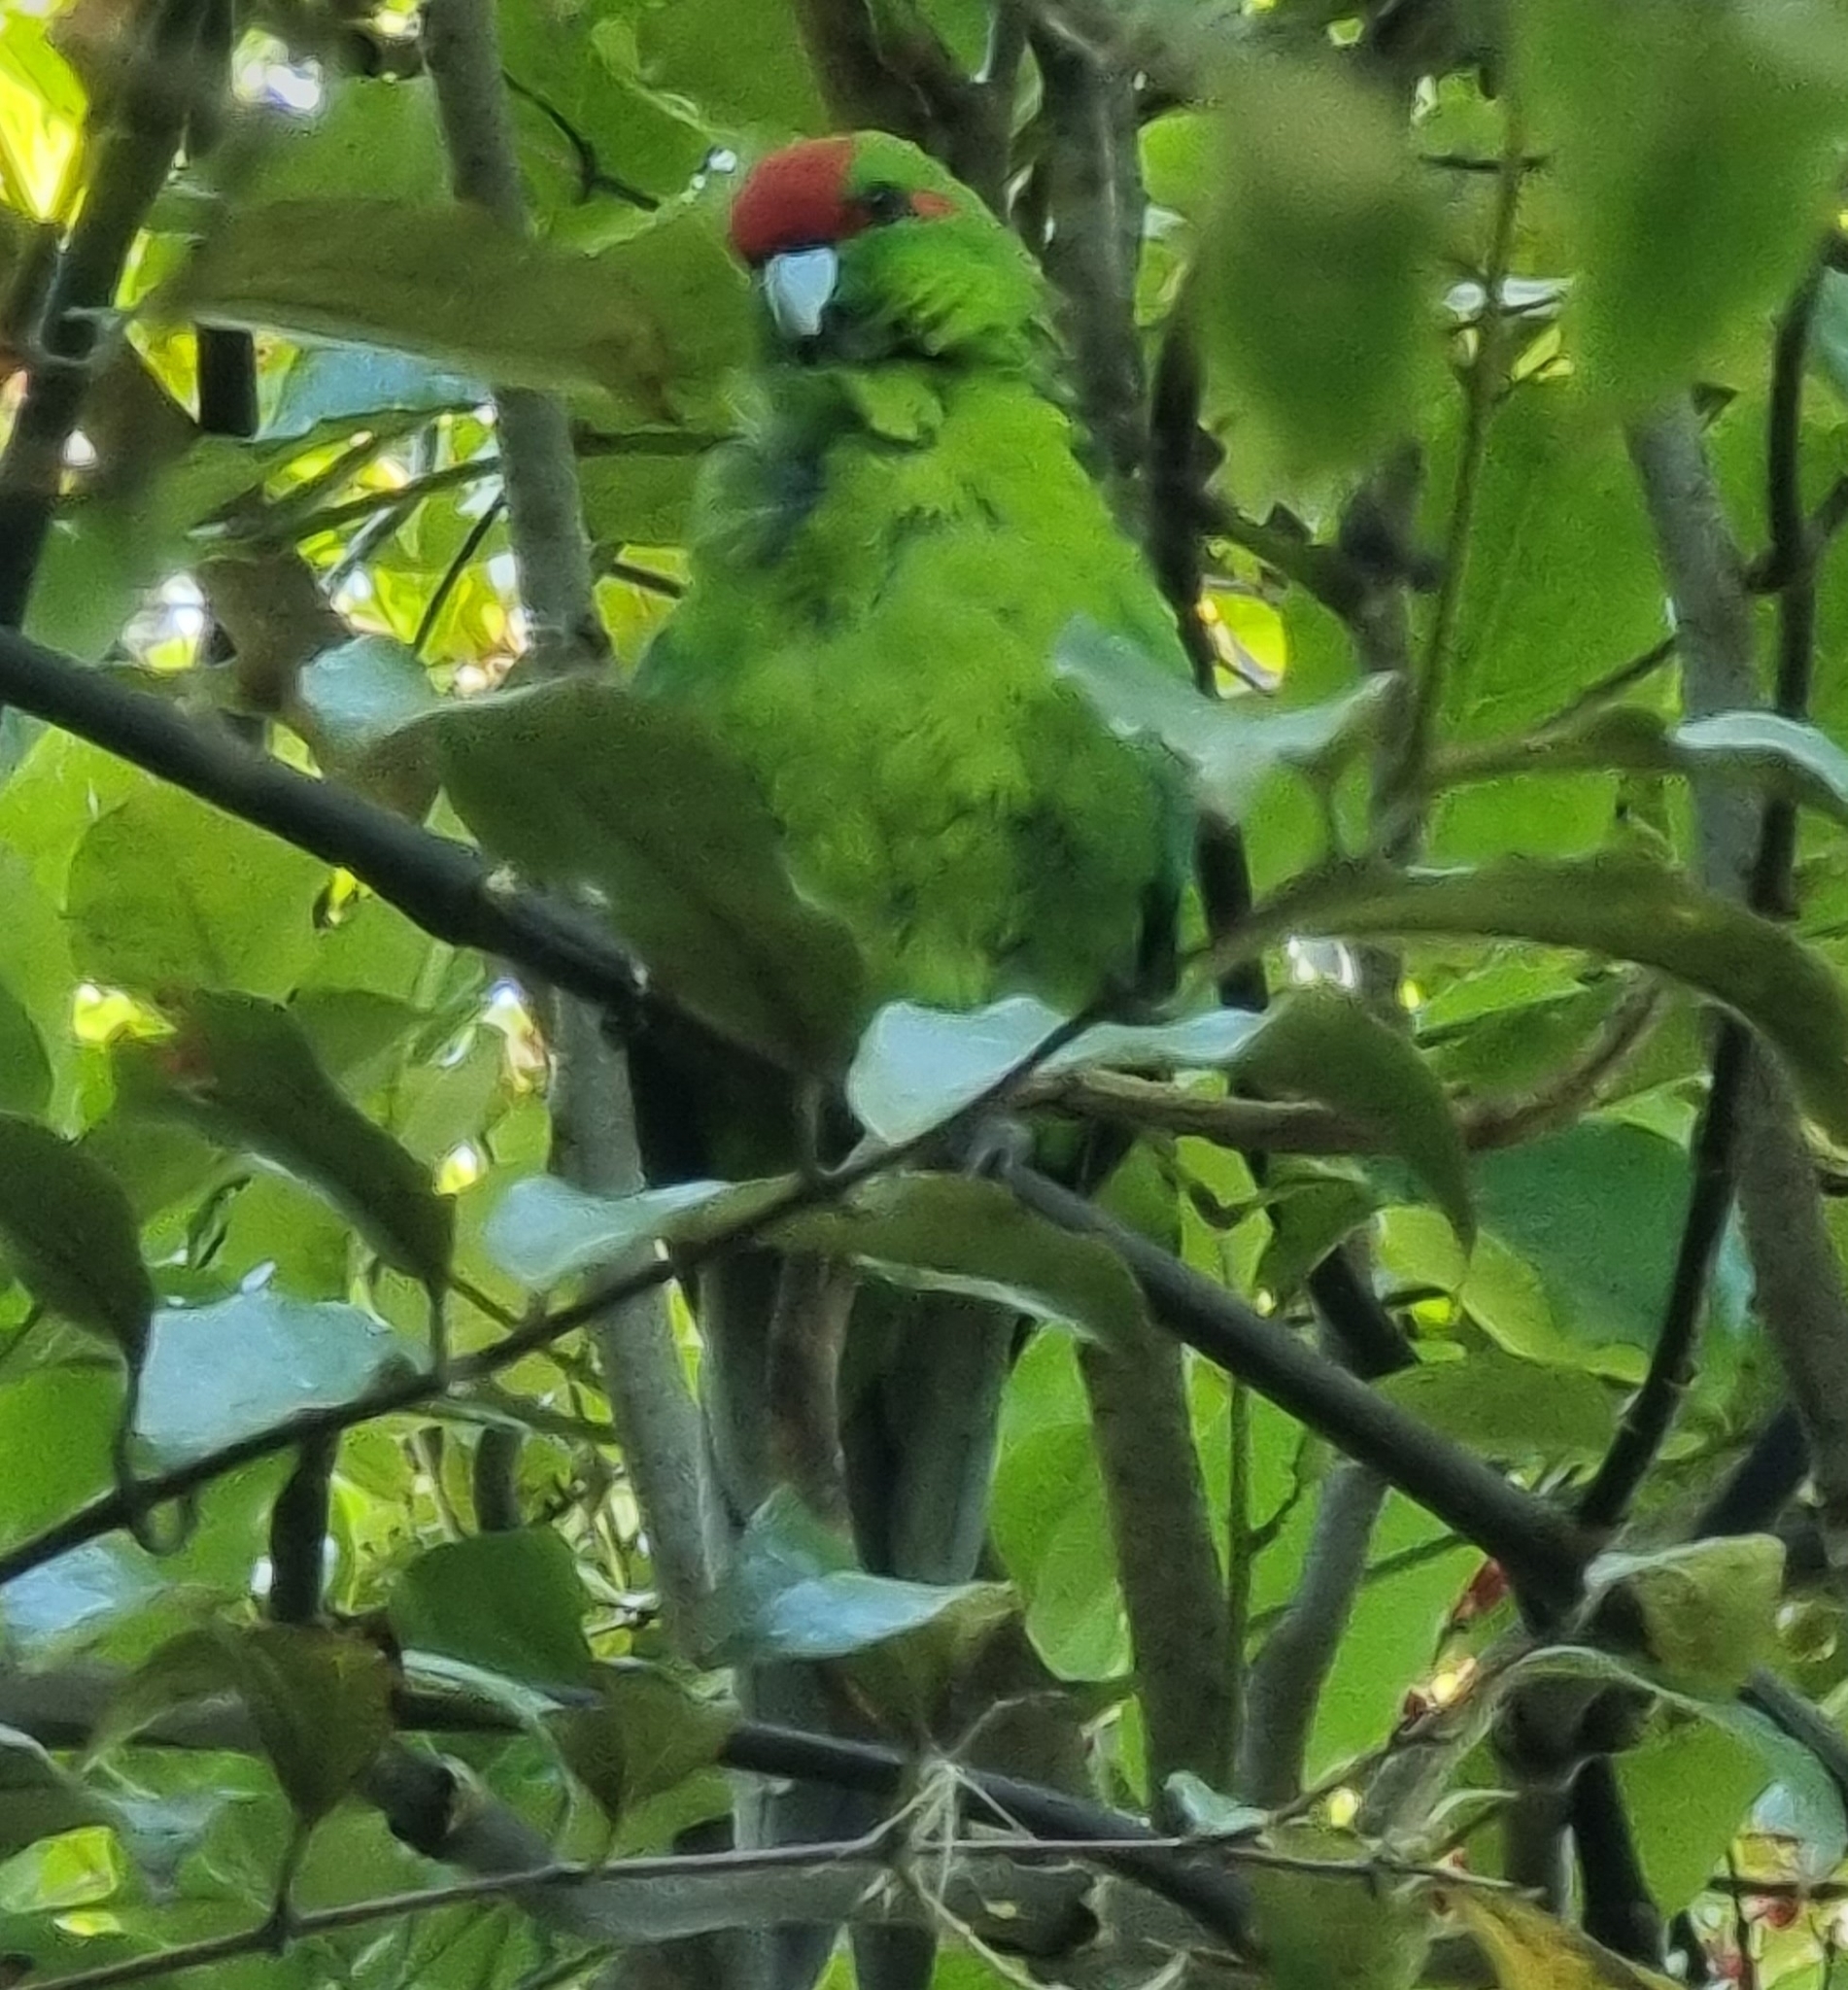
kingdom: Animalia
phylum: Chordata
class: Aves
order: Psittaciformes
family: Psittacidae
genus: Cyanoramphus
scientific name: Cyanoramphus novaezelandiae
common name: Red-fronted parakeet
